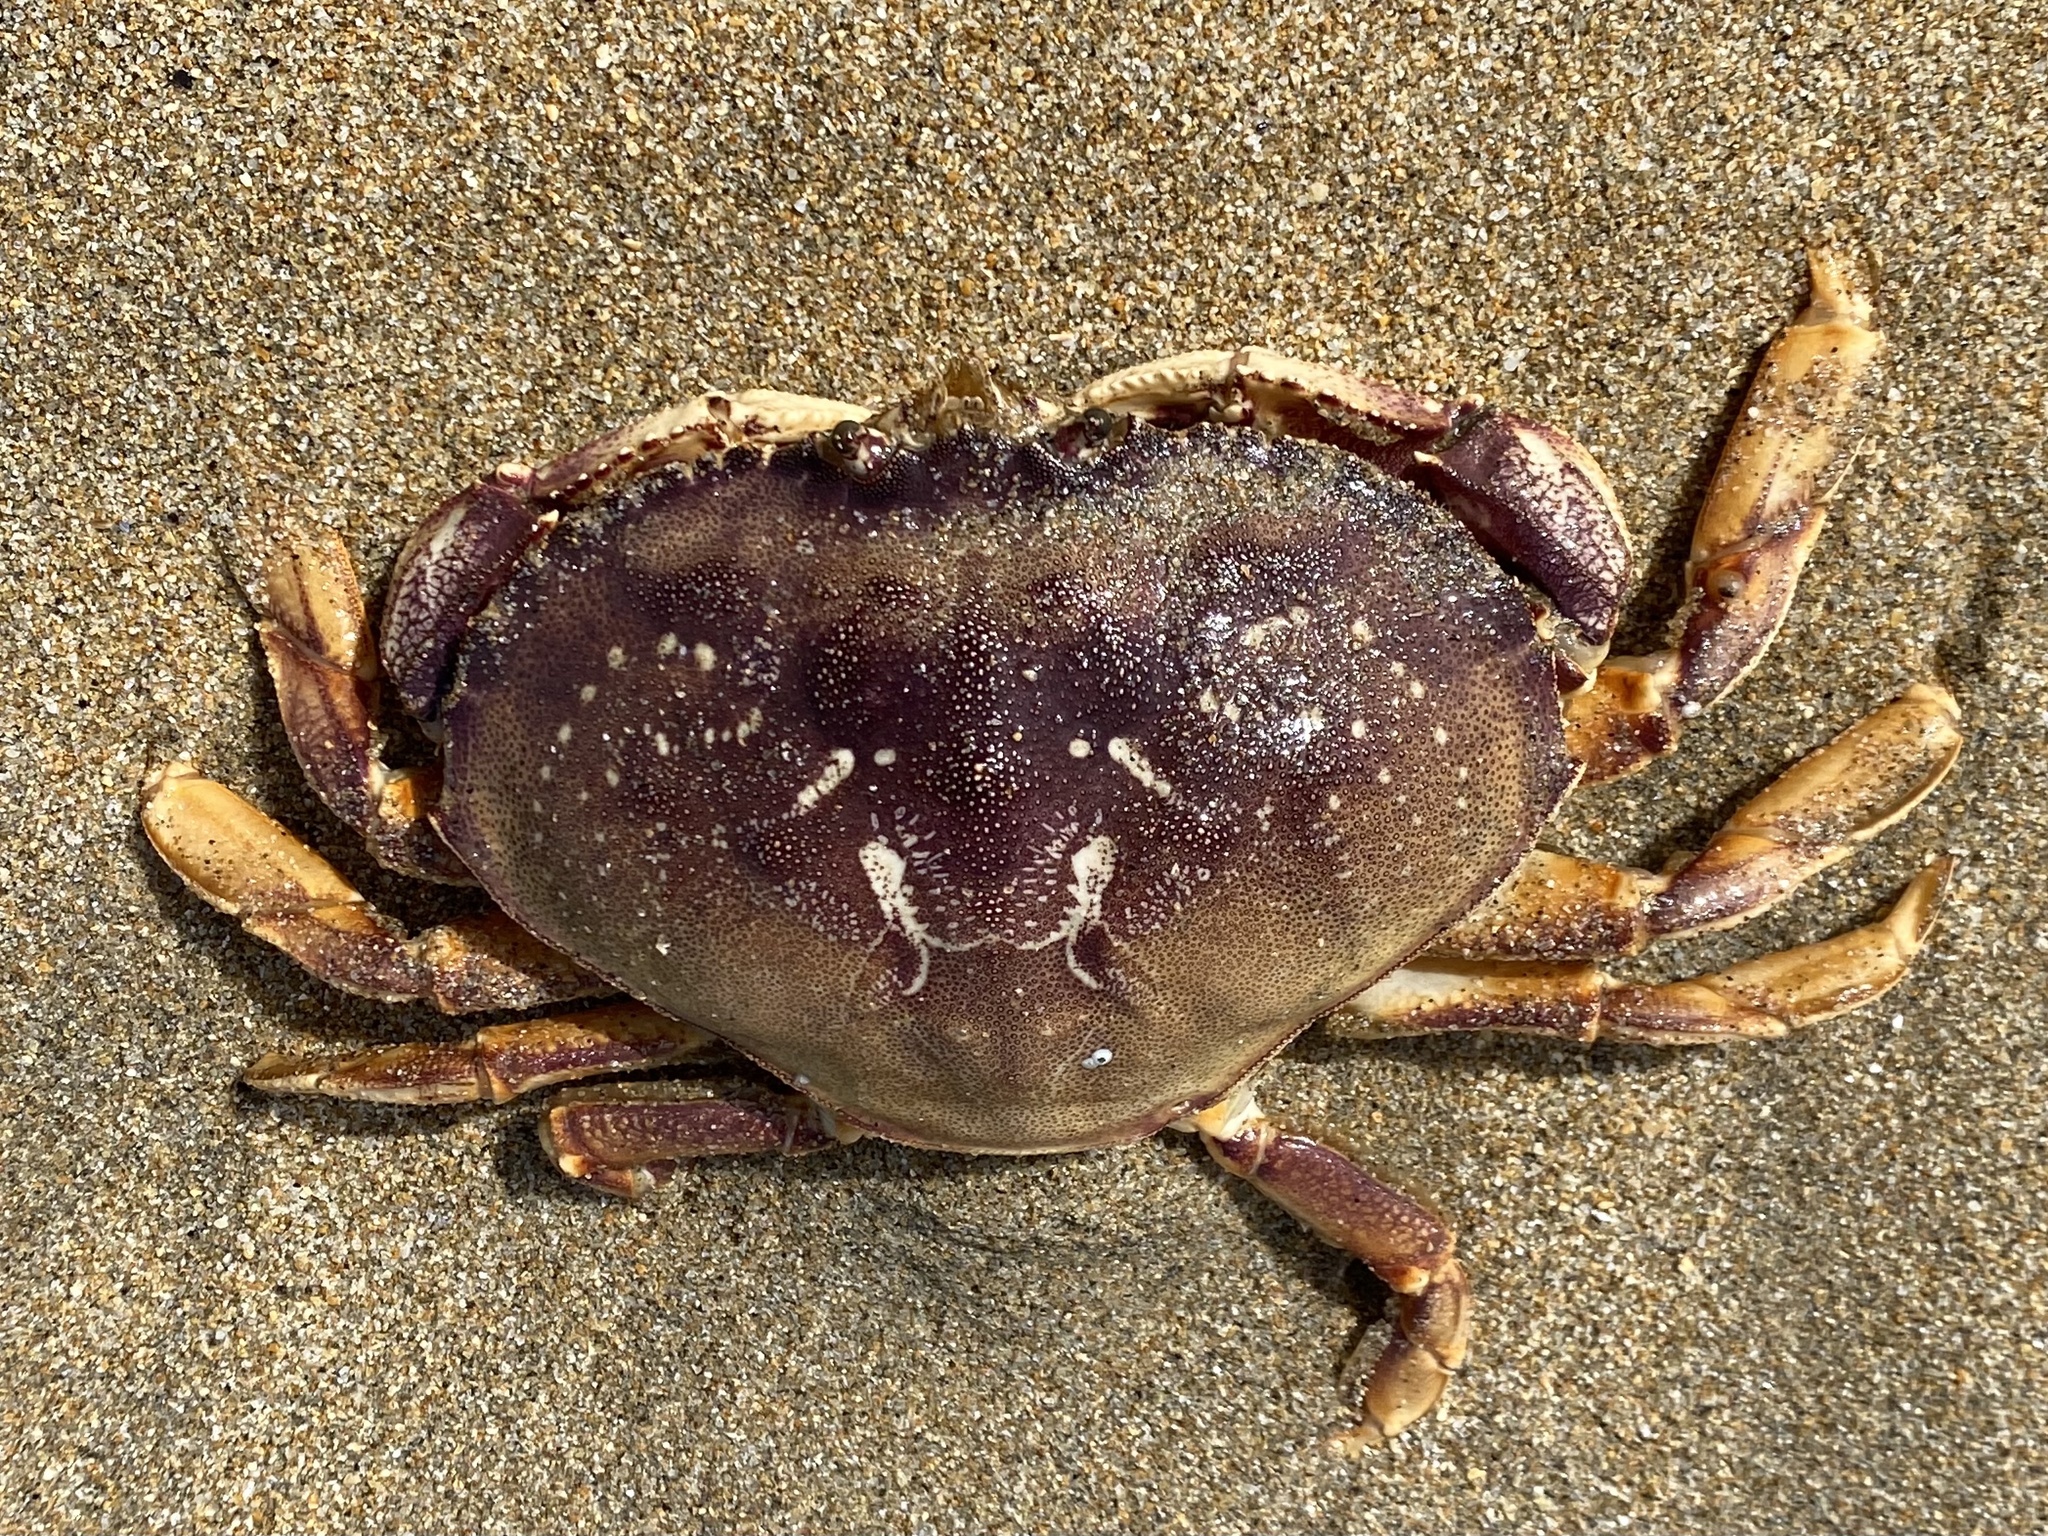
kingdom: Animalia
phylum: Arthropoda
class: Malacostraca
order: Decapoda
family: Cancridae
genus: Metacarcinus
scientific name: Metacarcinus magister
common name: Californian crab
